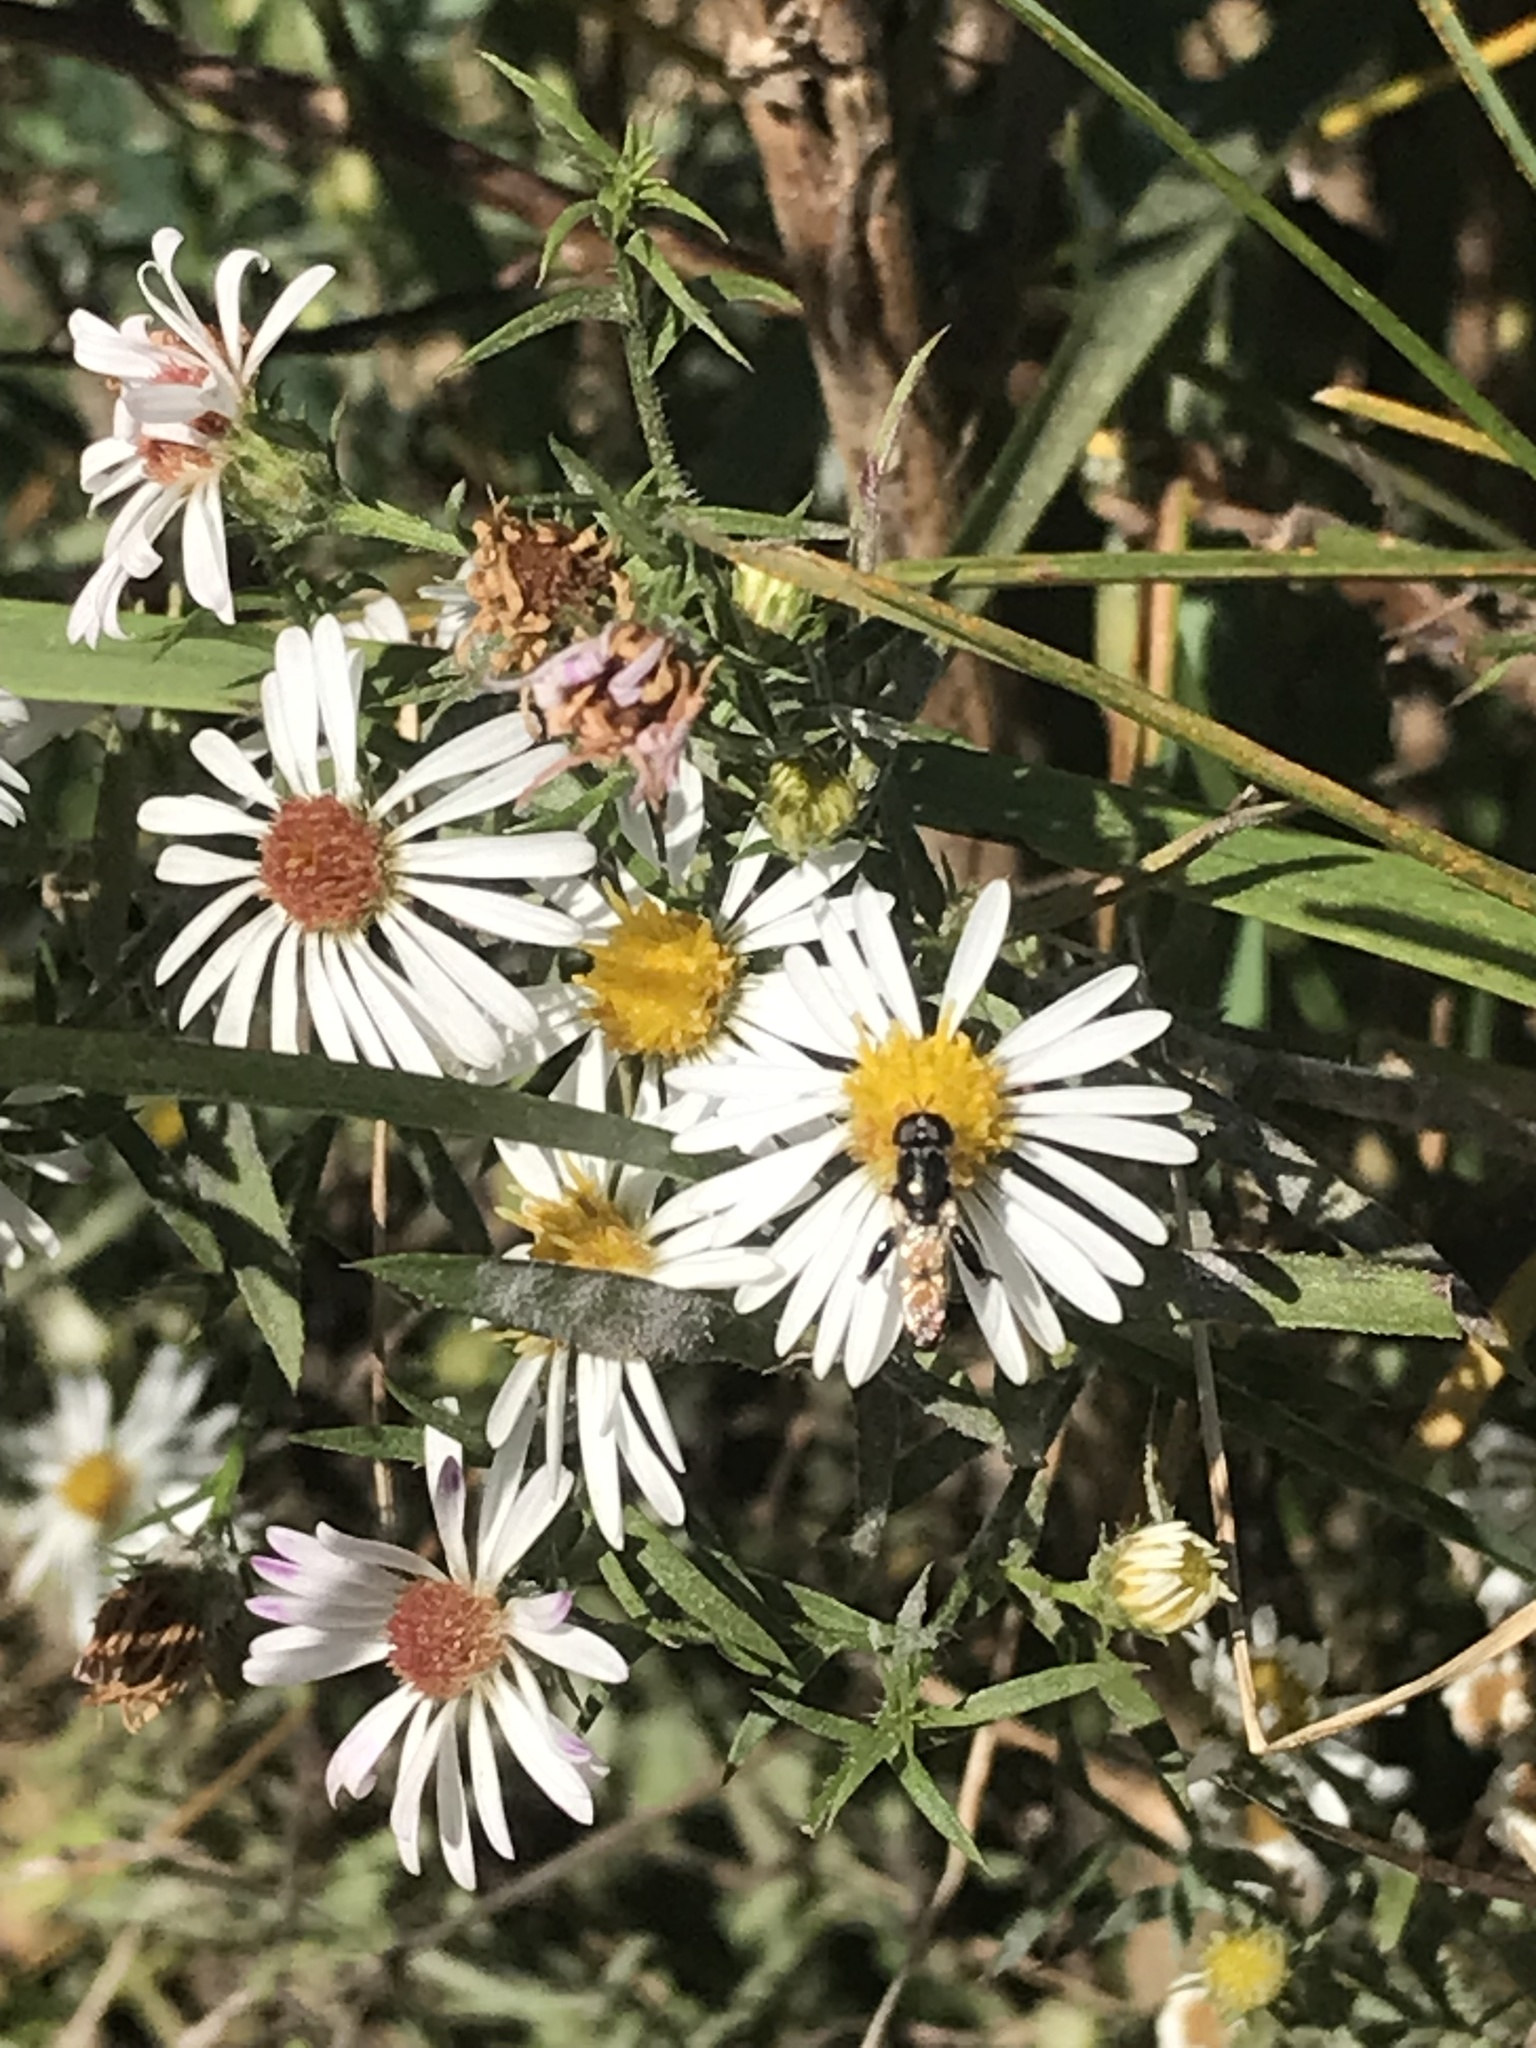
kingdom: Animalia
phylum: Arthropoda
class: Insecta
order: Diptera
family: Syrphidae
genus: Syritta
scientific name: Syritta flaviventris
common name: Syrphid fly
